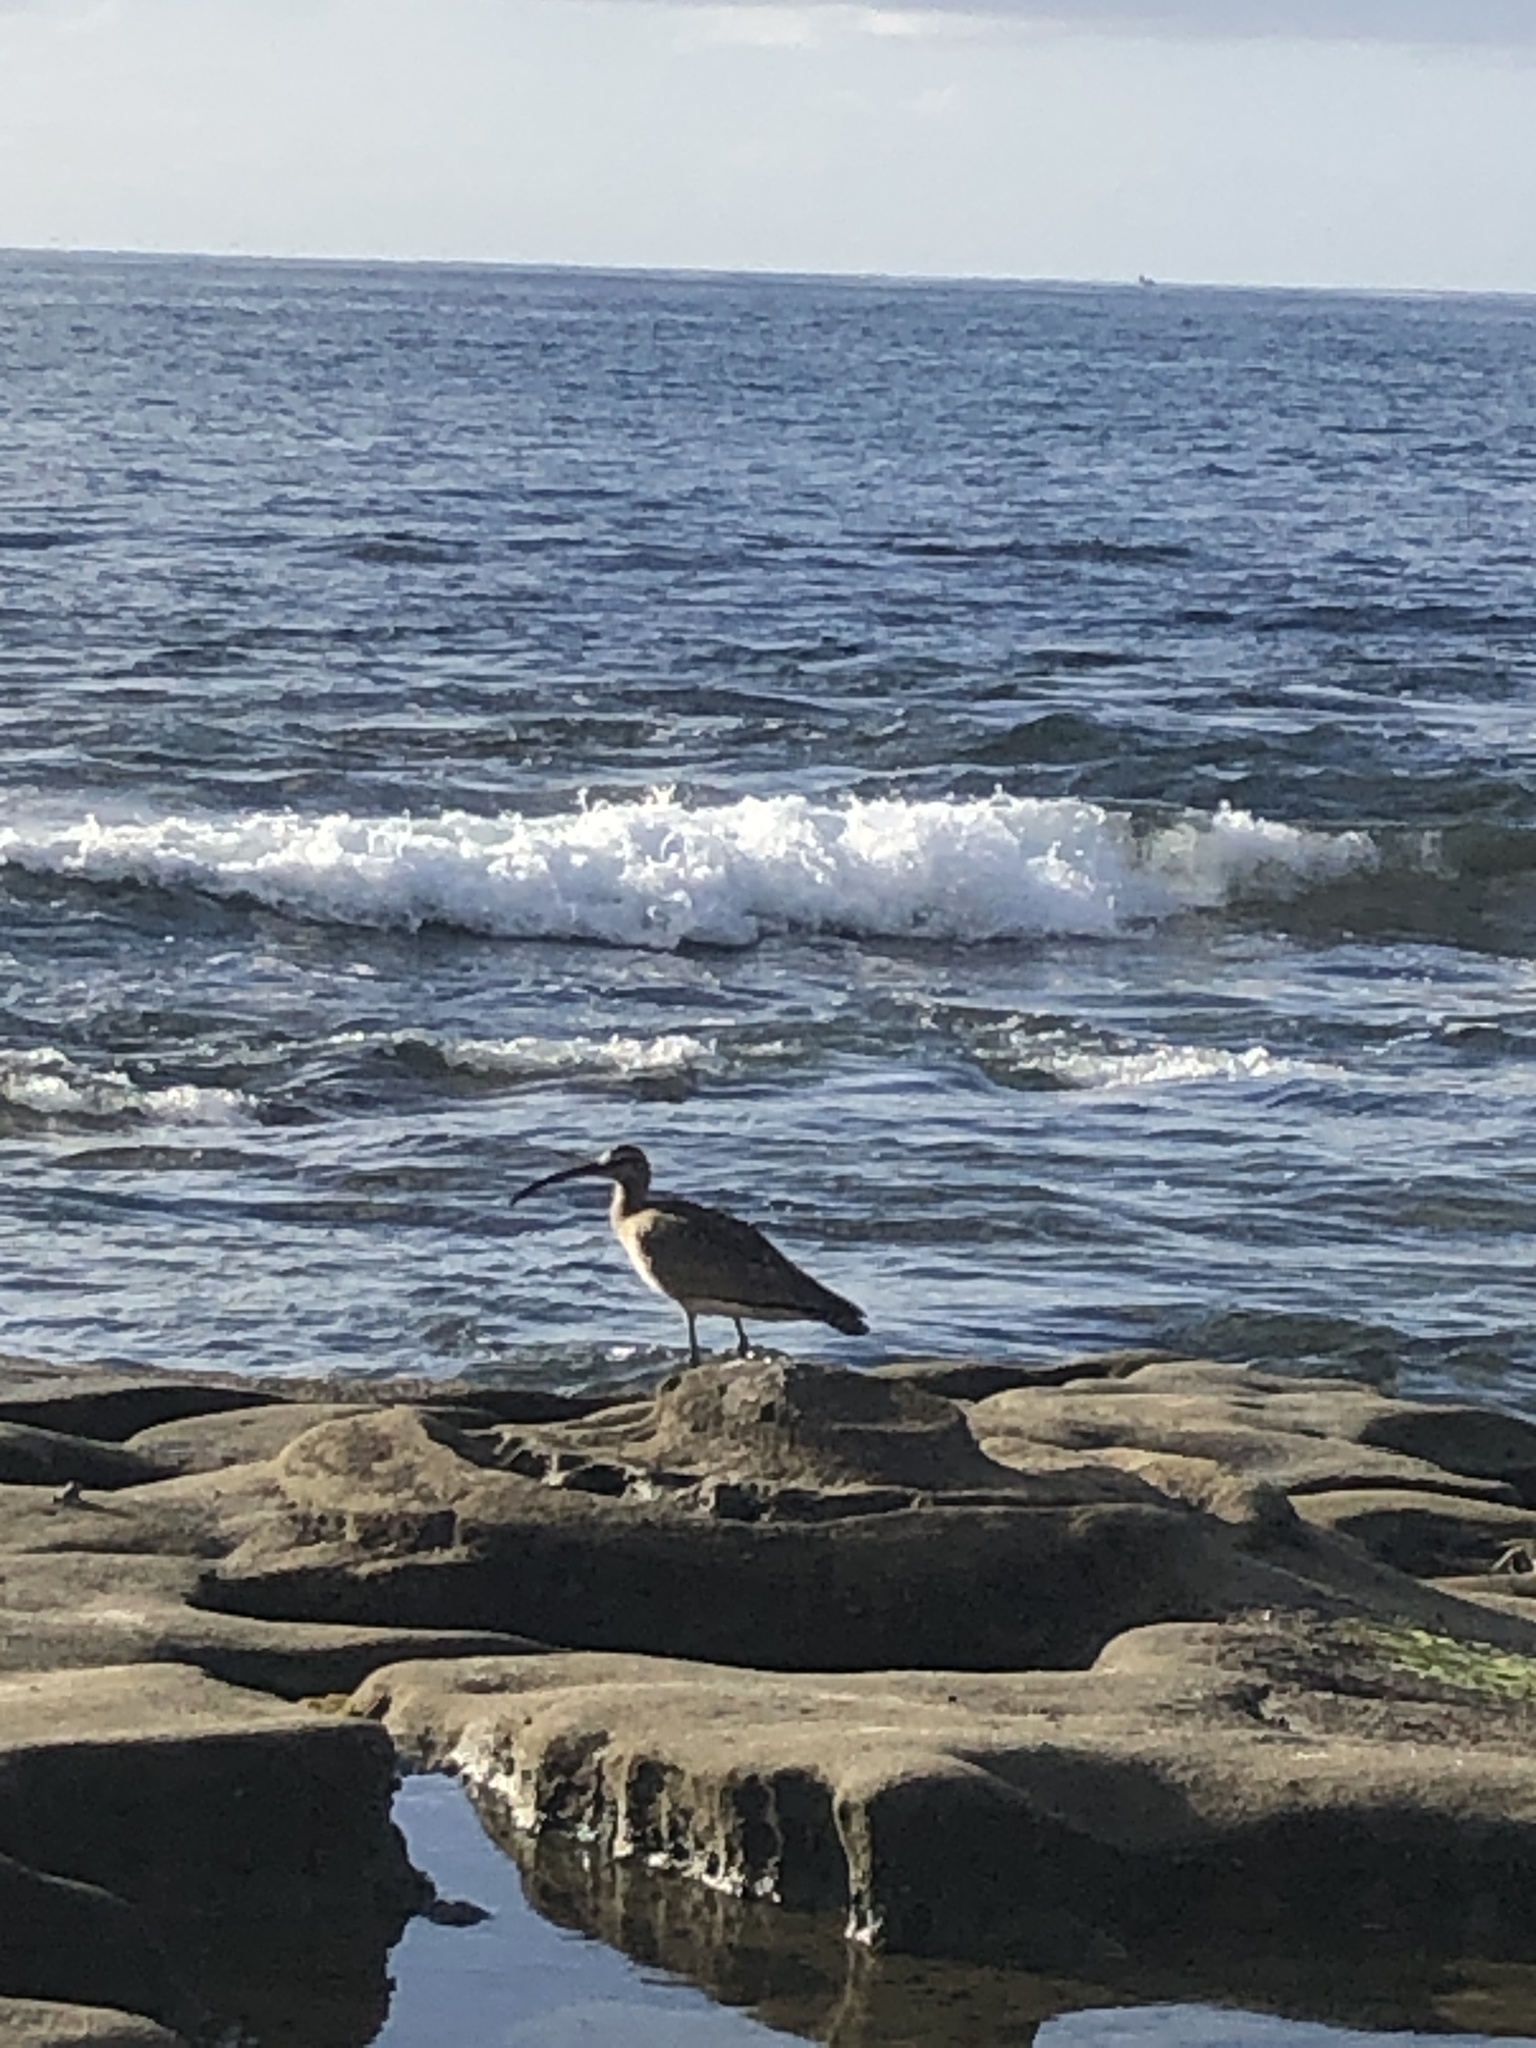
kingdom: Animalia
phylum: Chordata
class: Aves
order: Charadriiformes
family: Scolopacidae
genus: Numenius
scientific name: Numenius phaeopus
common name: Whimbrel
